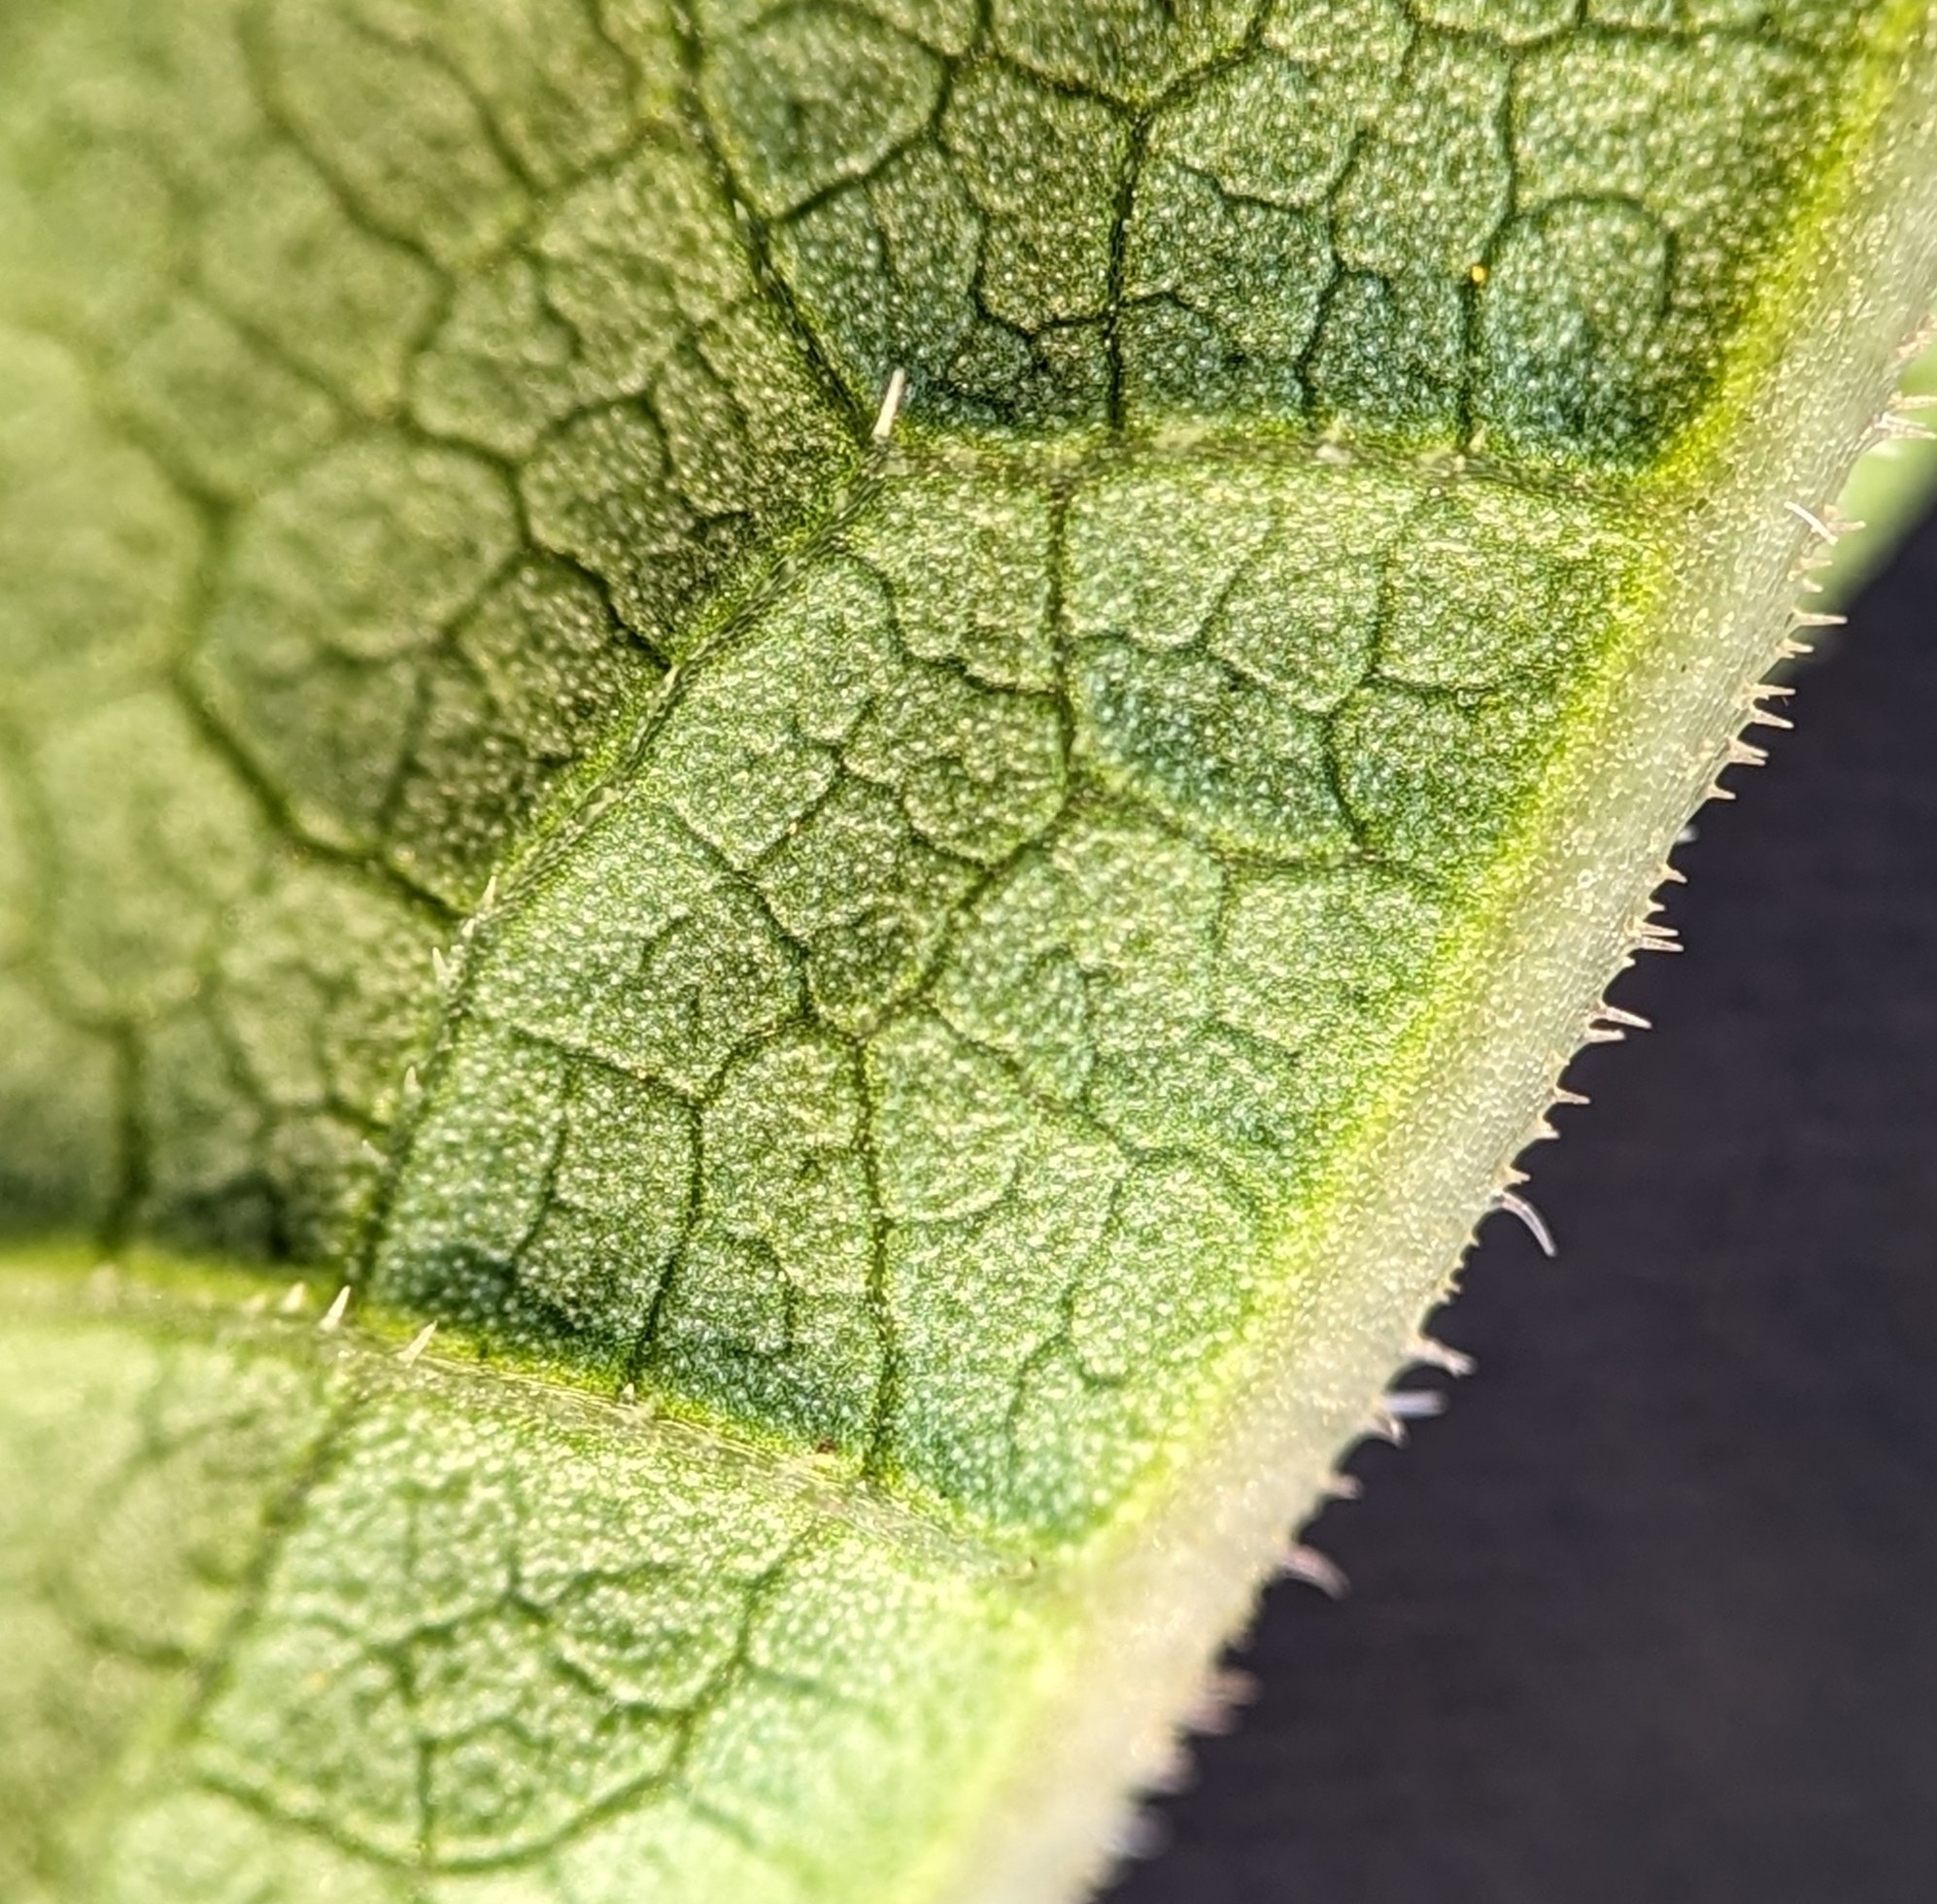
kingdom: Plantae
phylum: Tracheophyta
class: Magnoliopsida
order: Caryophyllales
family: Polygonaceae
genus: Reynoutria
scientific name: Reynoutria bohemica
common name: Bohemian knotweed
